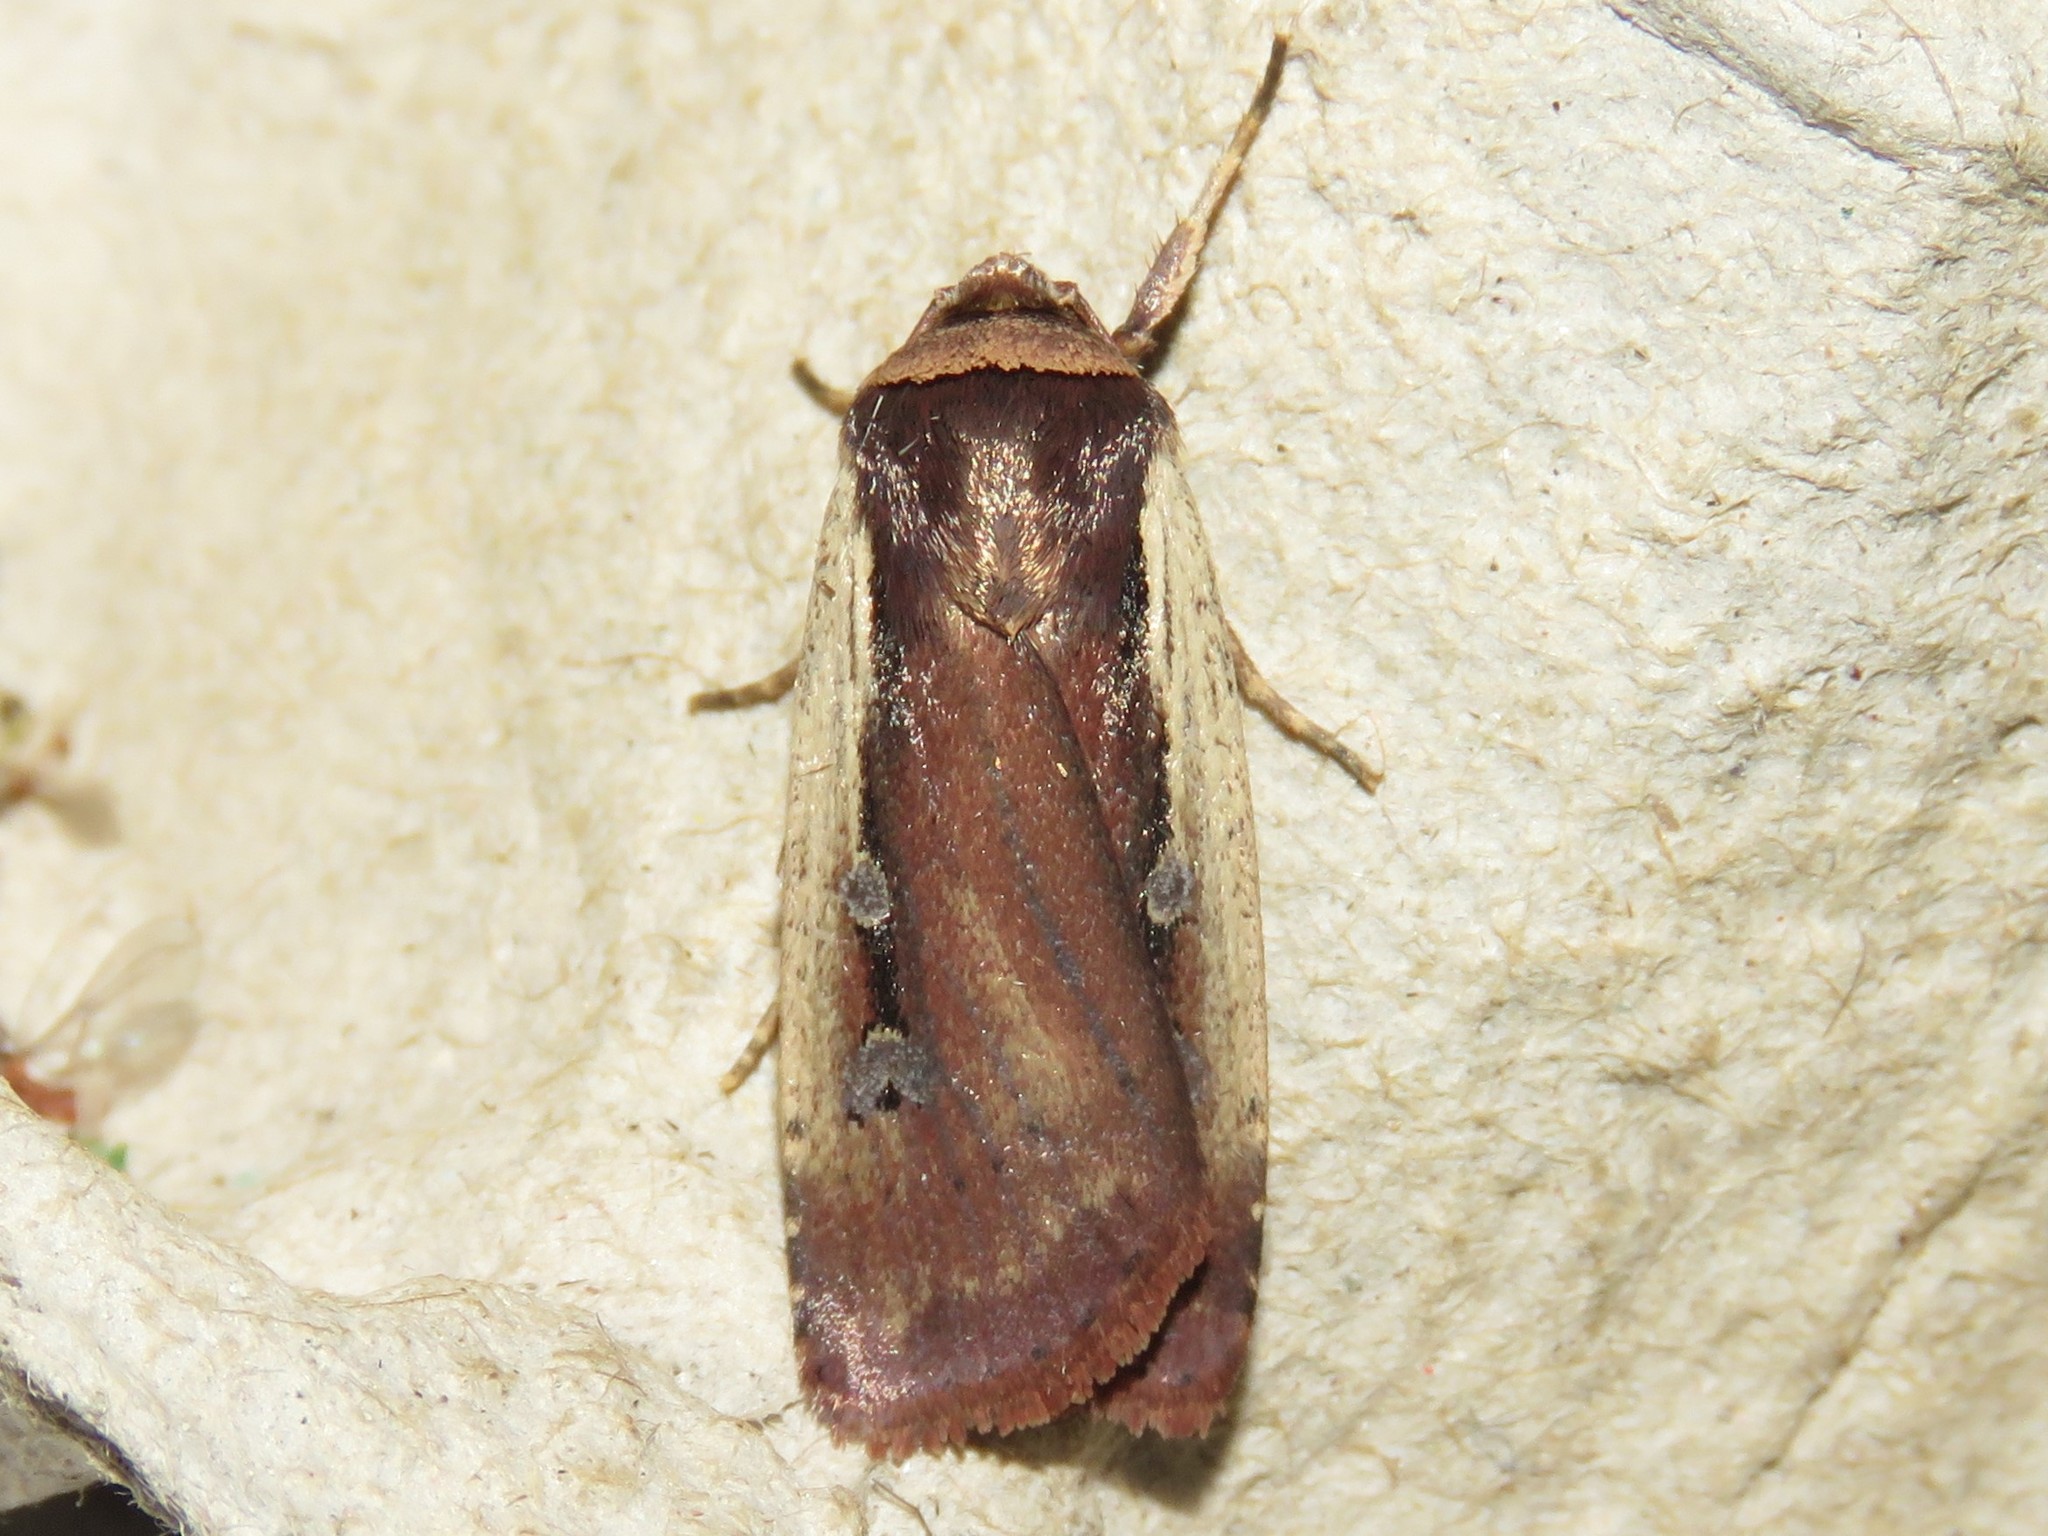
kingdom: Animalia
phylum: Arthropoda
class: Insecta
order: Lepidoptera
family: Noctuidae
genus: Ochropleura
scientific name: Ochropleura implecta
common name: Flame-shouldered dart
